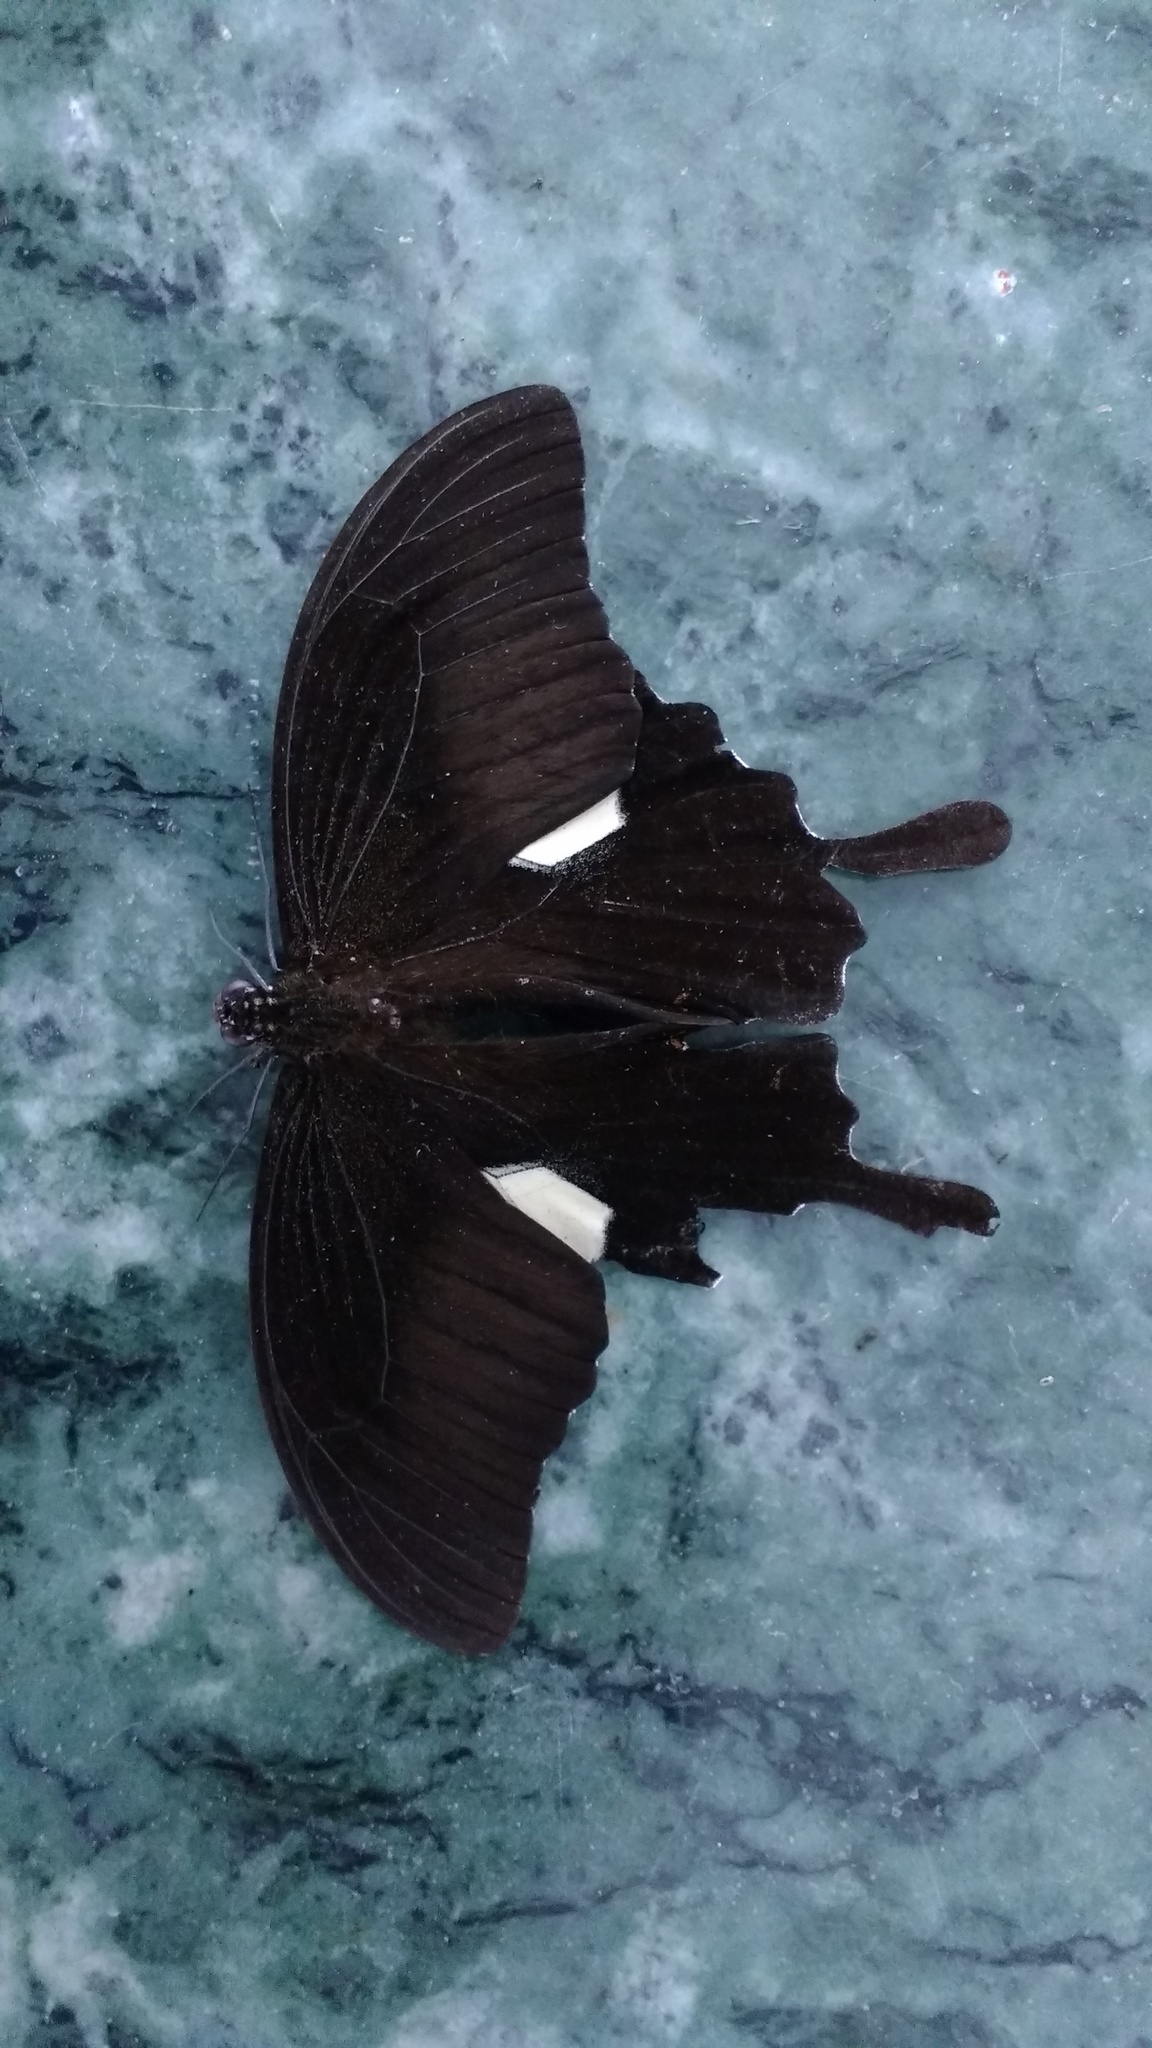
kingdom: Animalia
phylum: Arthropoda
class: Insecta
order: Lepidoptera
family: Papilionidae
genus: Papilio
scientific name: Papilio helenus
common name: Red helen
